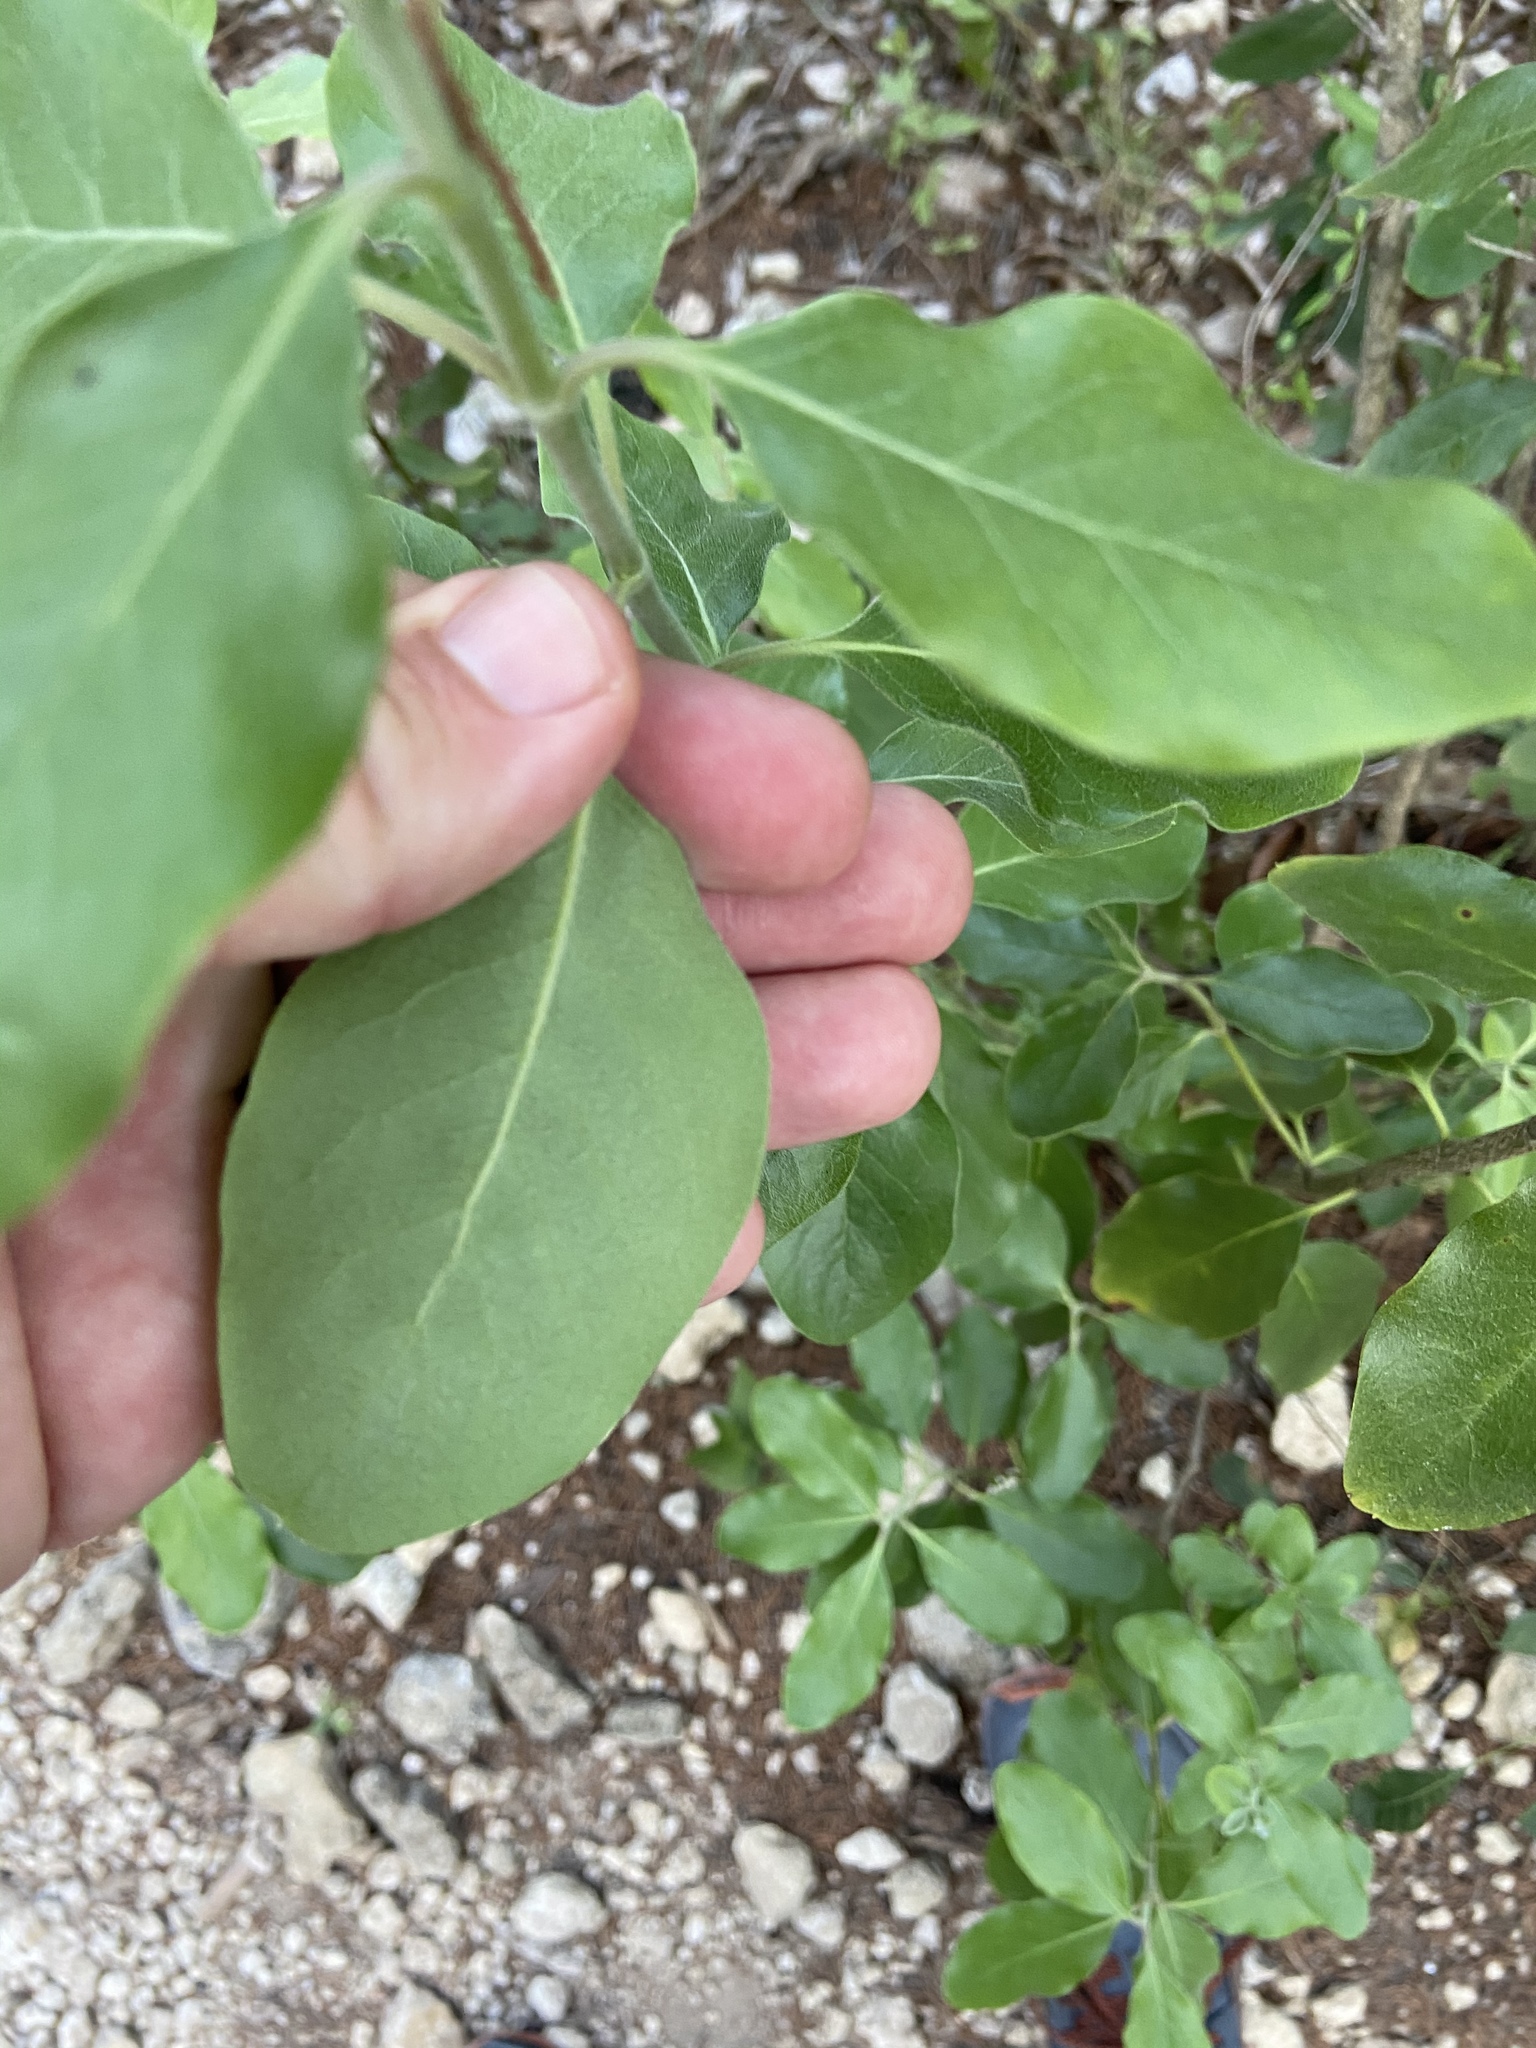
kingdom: Plantae
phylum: Tracheophyta
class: Magnoliopsida
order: Garryales
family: Garryaceae
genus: Garrya
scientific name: Garrya lindheimeri
